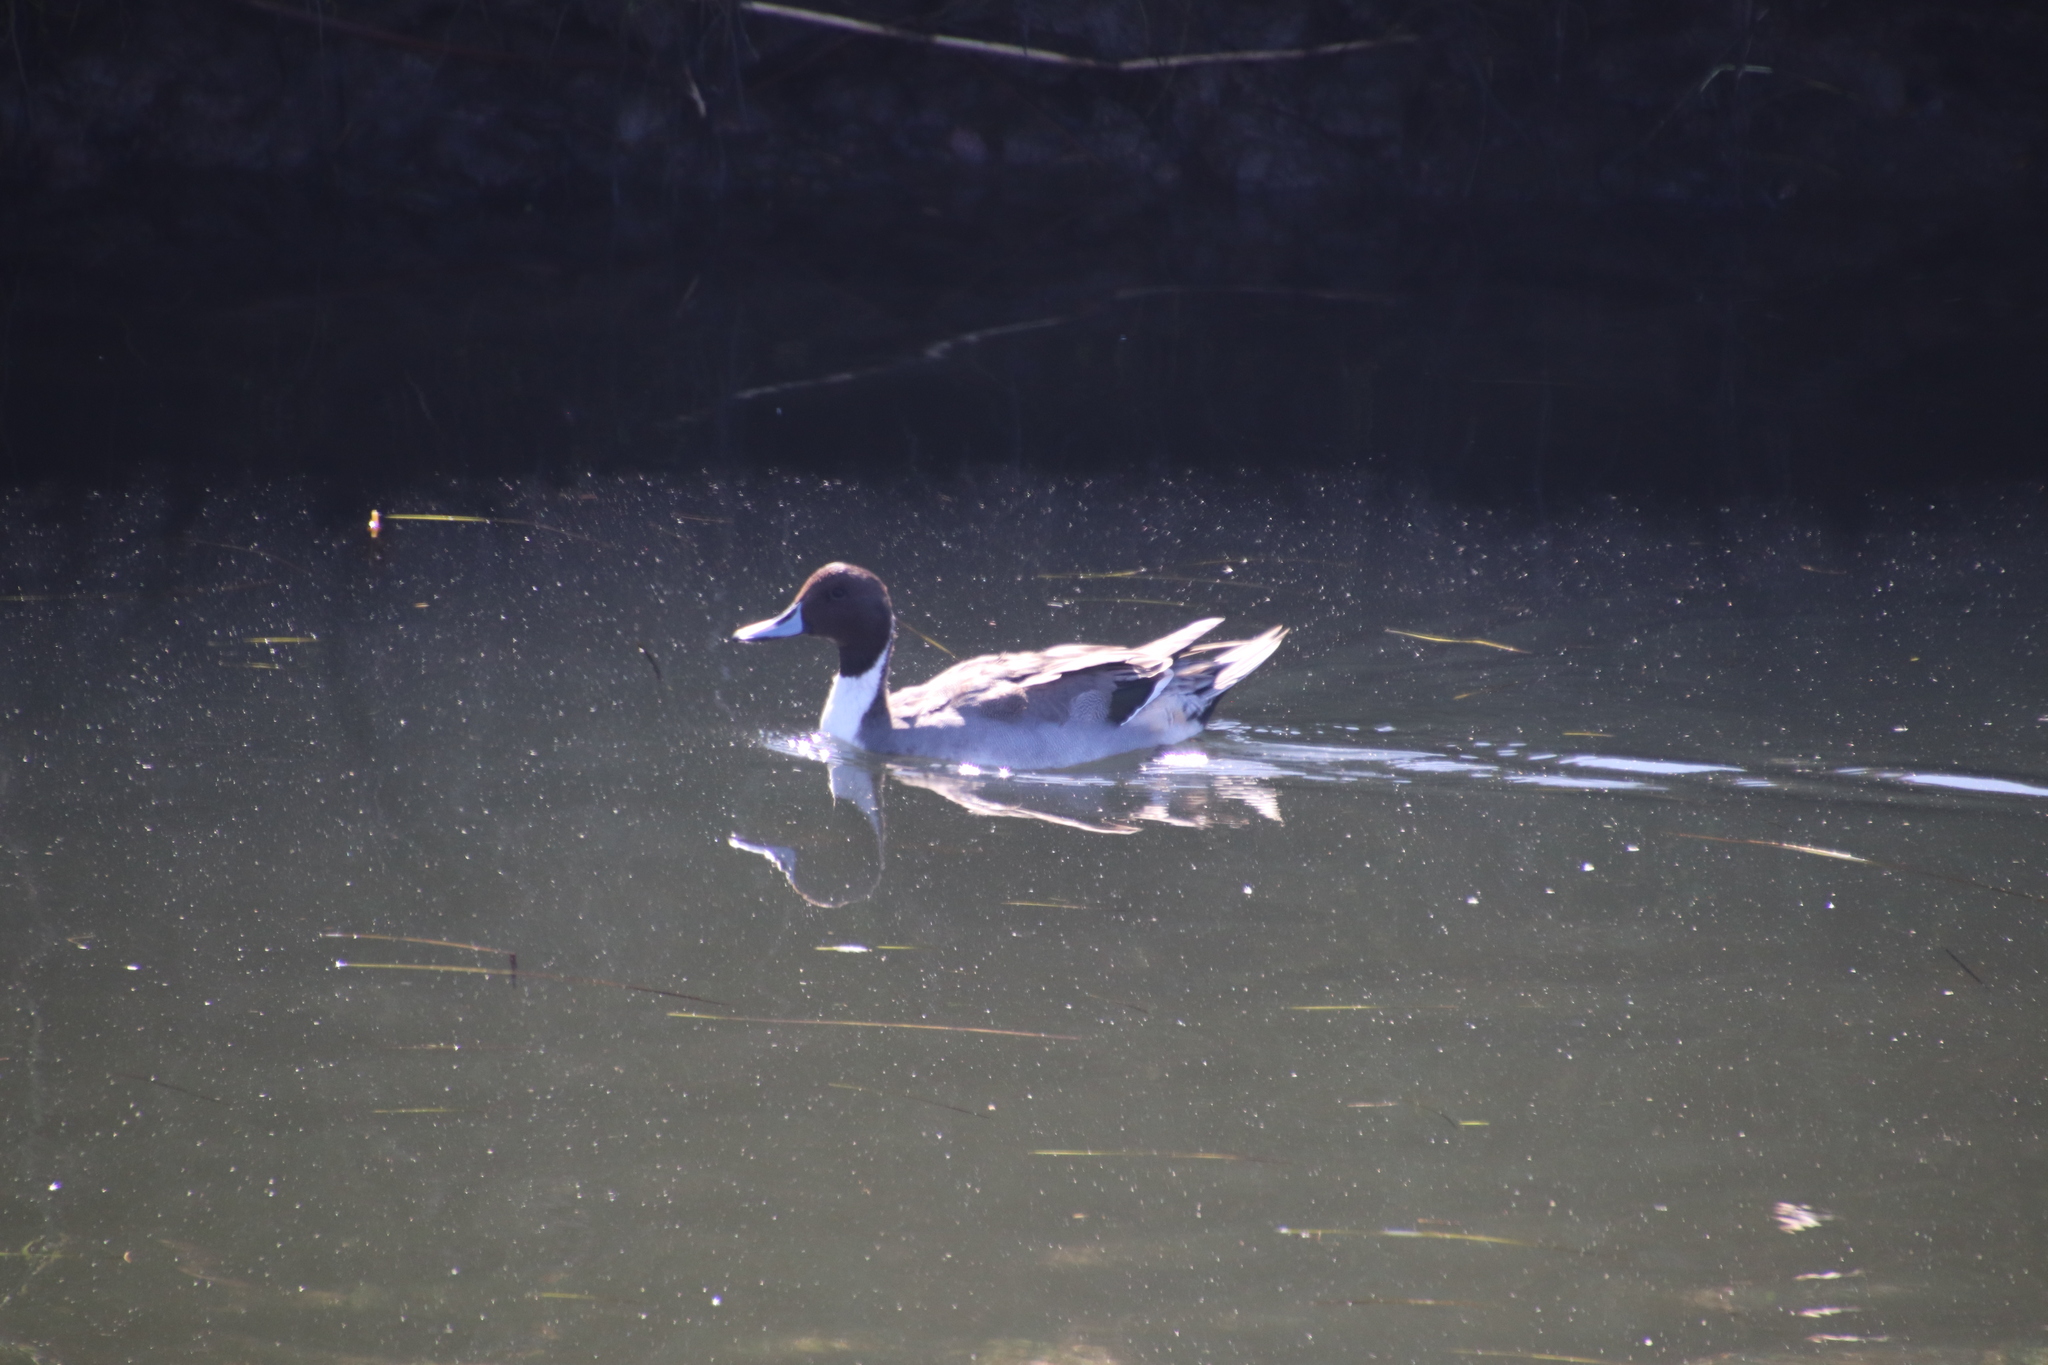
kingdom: Animalia
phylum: Chordata
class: Aves
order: Anseriformes
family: Anatidae
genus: Anas
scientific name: Anas acuta
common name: Northern pintail
